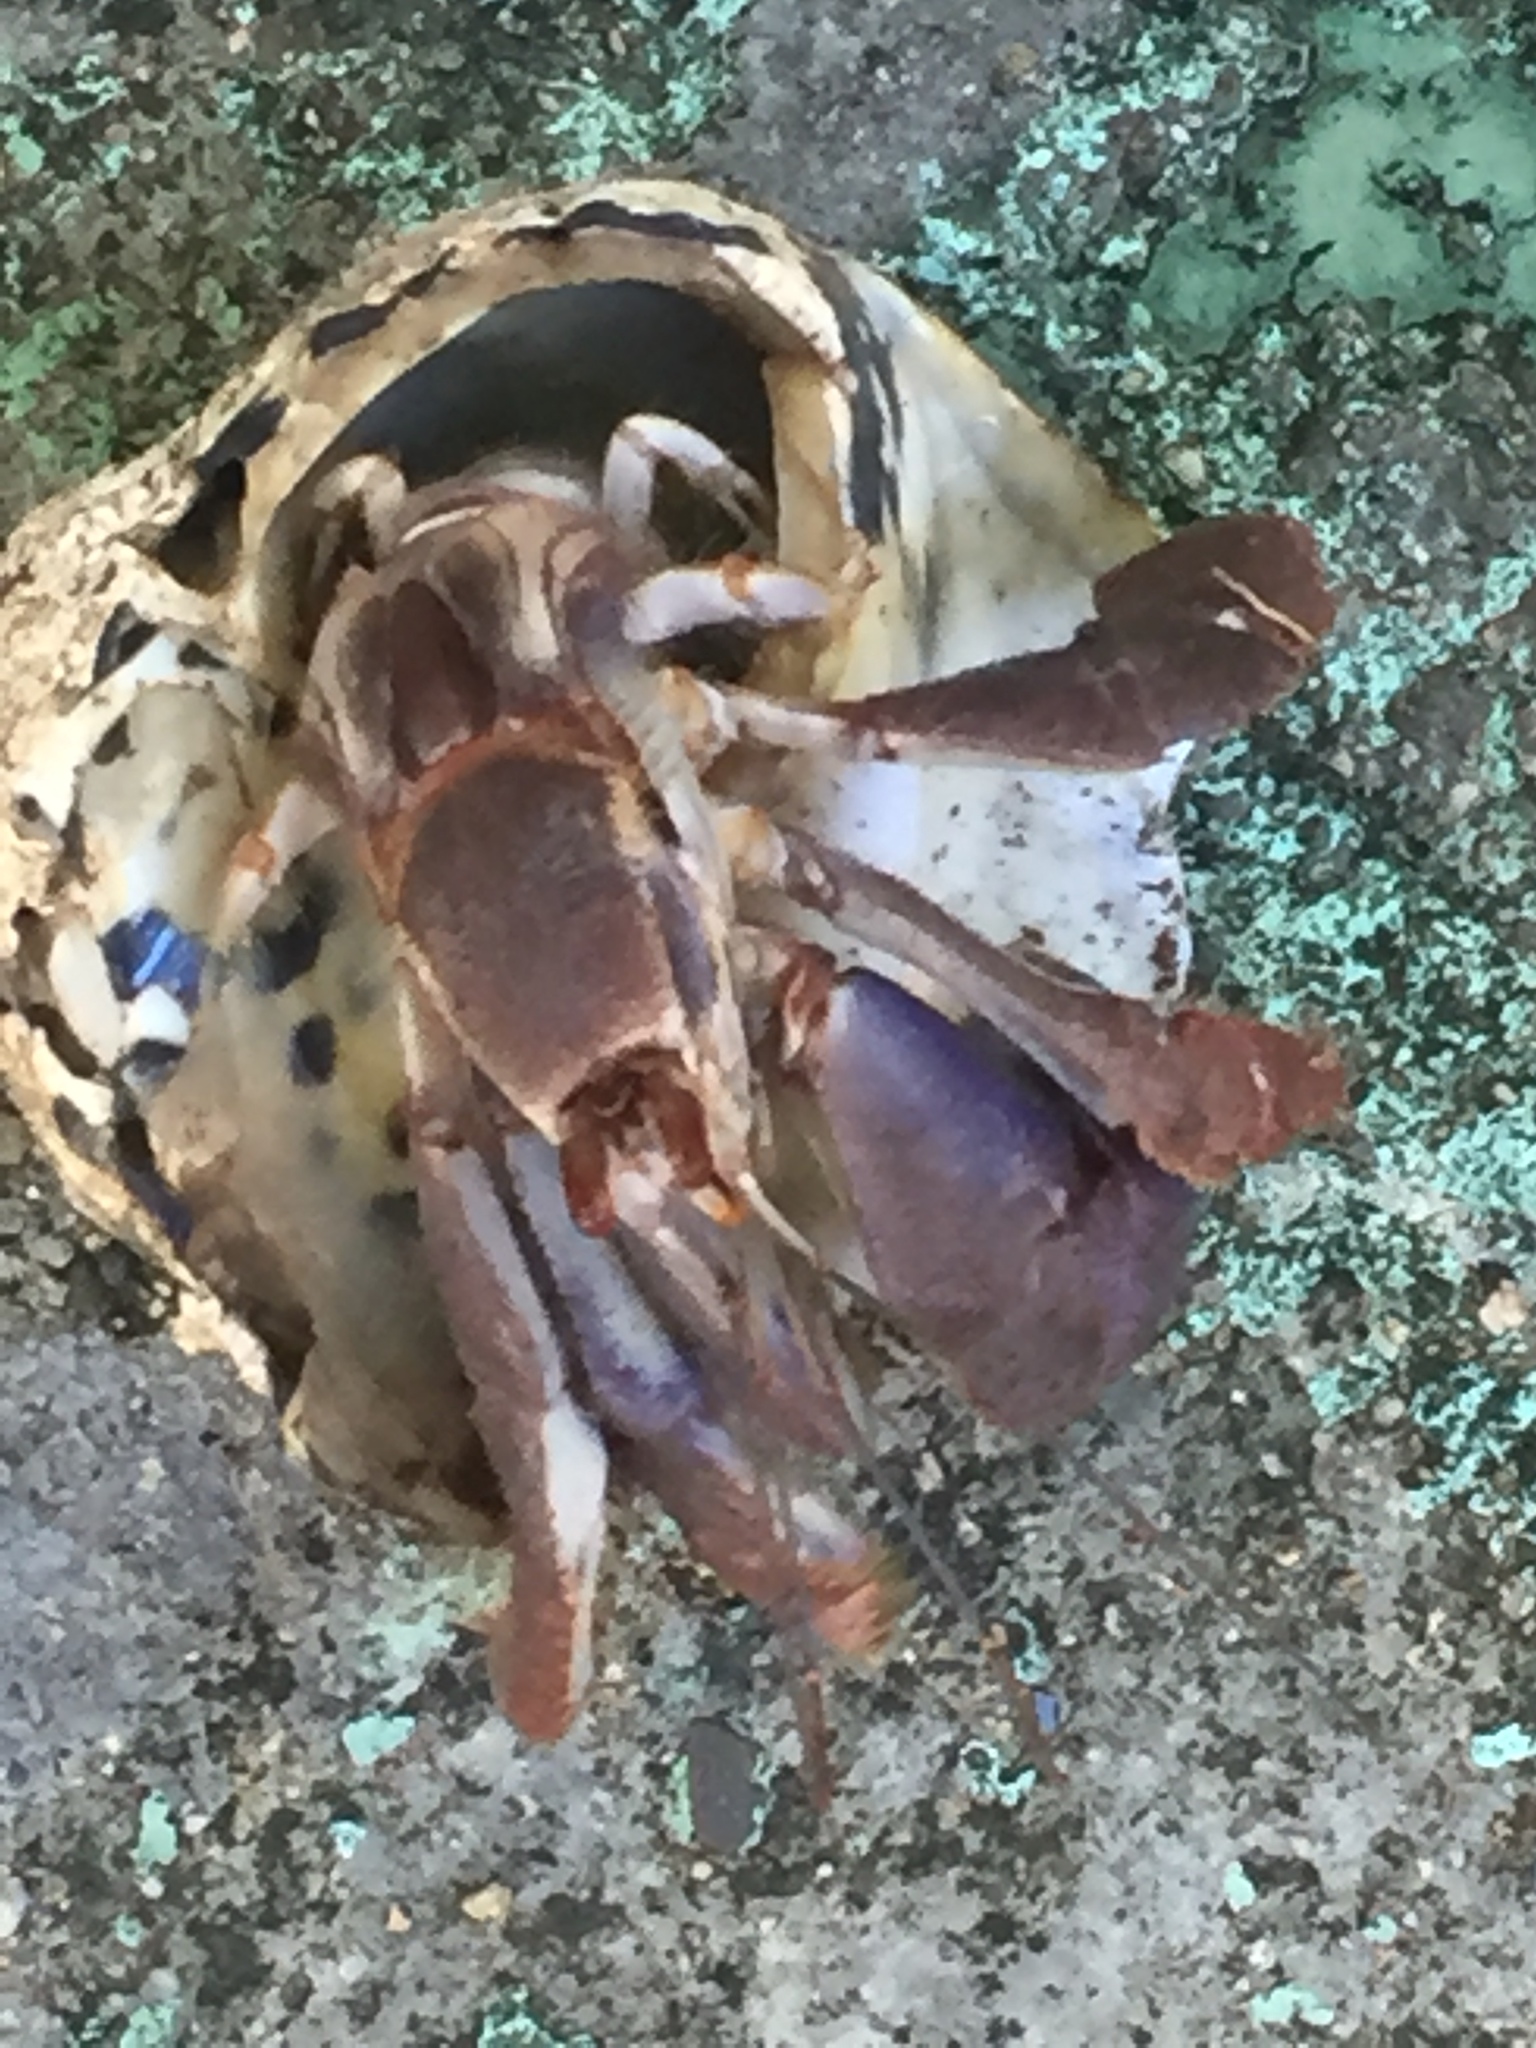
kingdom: Animalia
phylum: Arthropoda
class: Malacostraca
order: Decapoda
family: Coenobitidae
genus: Coenobita
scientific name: Coenobita clypeatus
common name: Caribbean hermit crab
